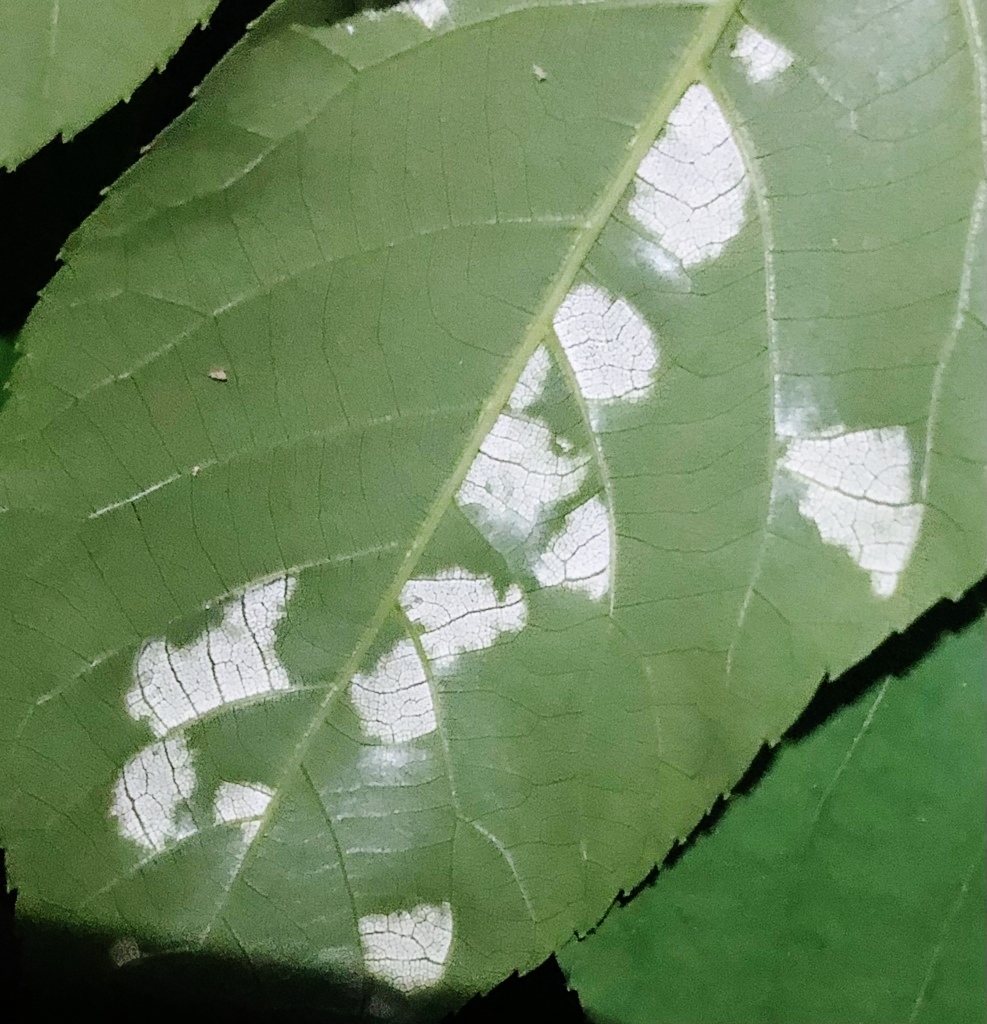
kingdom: Fungi
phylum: Basidiomycota
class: Exobasidiomycetes
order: Microstromatales
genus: Pseudomicrostroma
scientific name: Pseudomicrostroma juglandis
